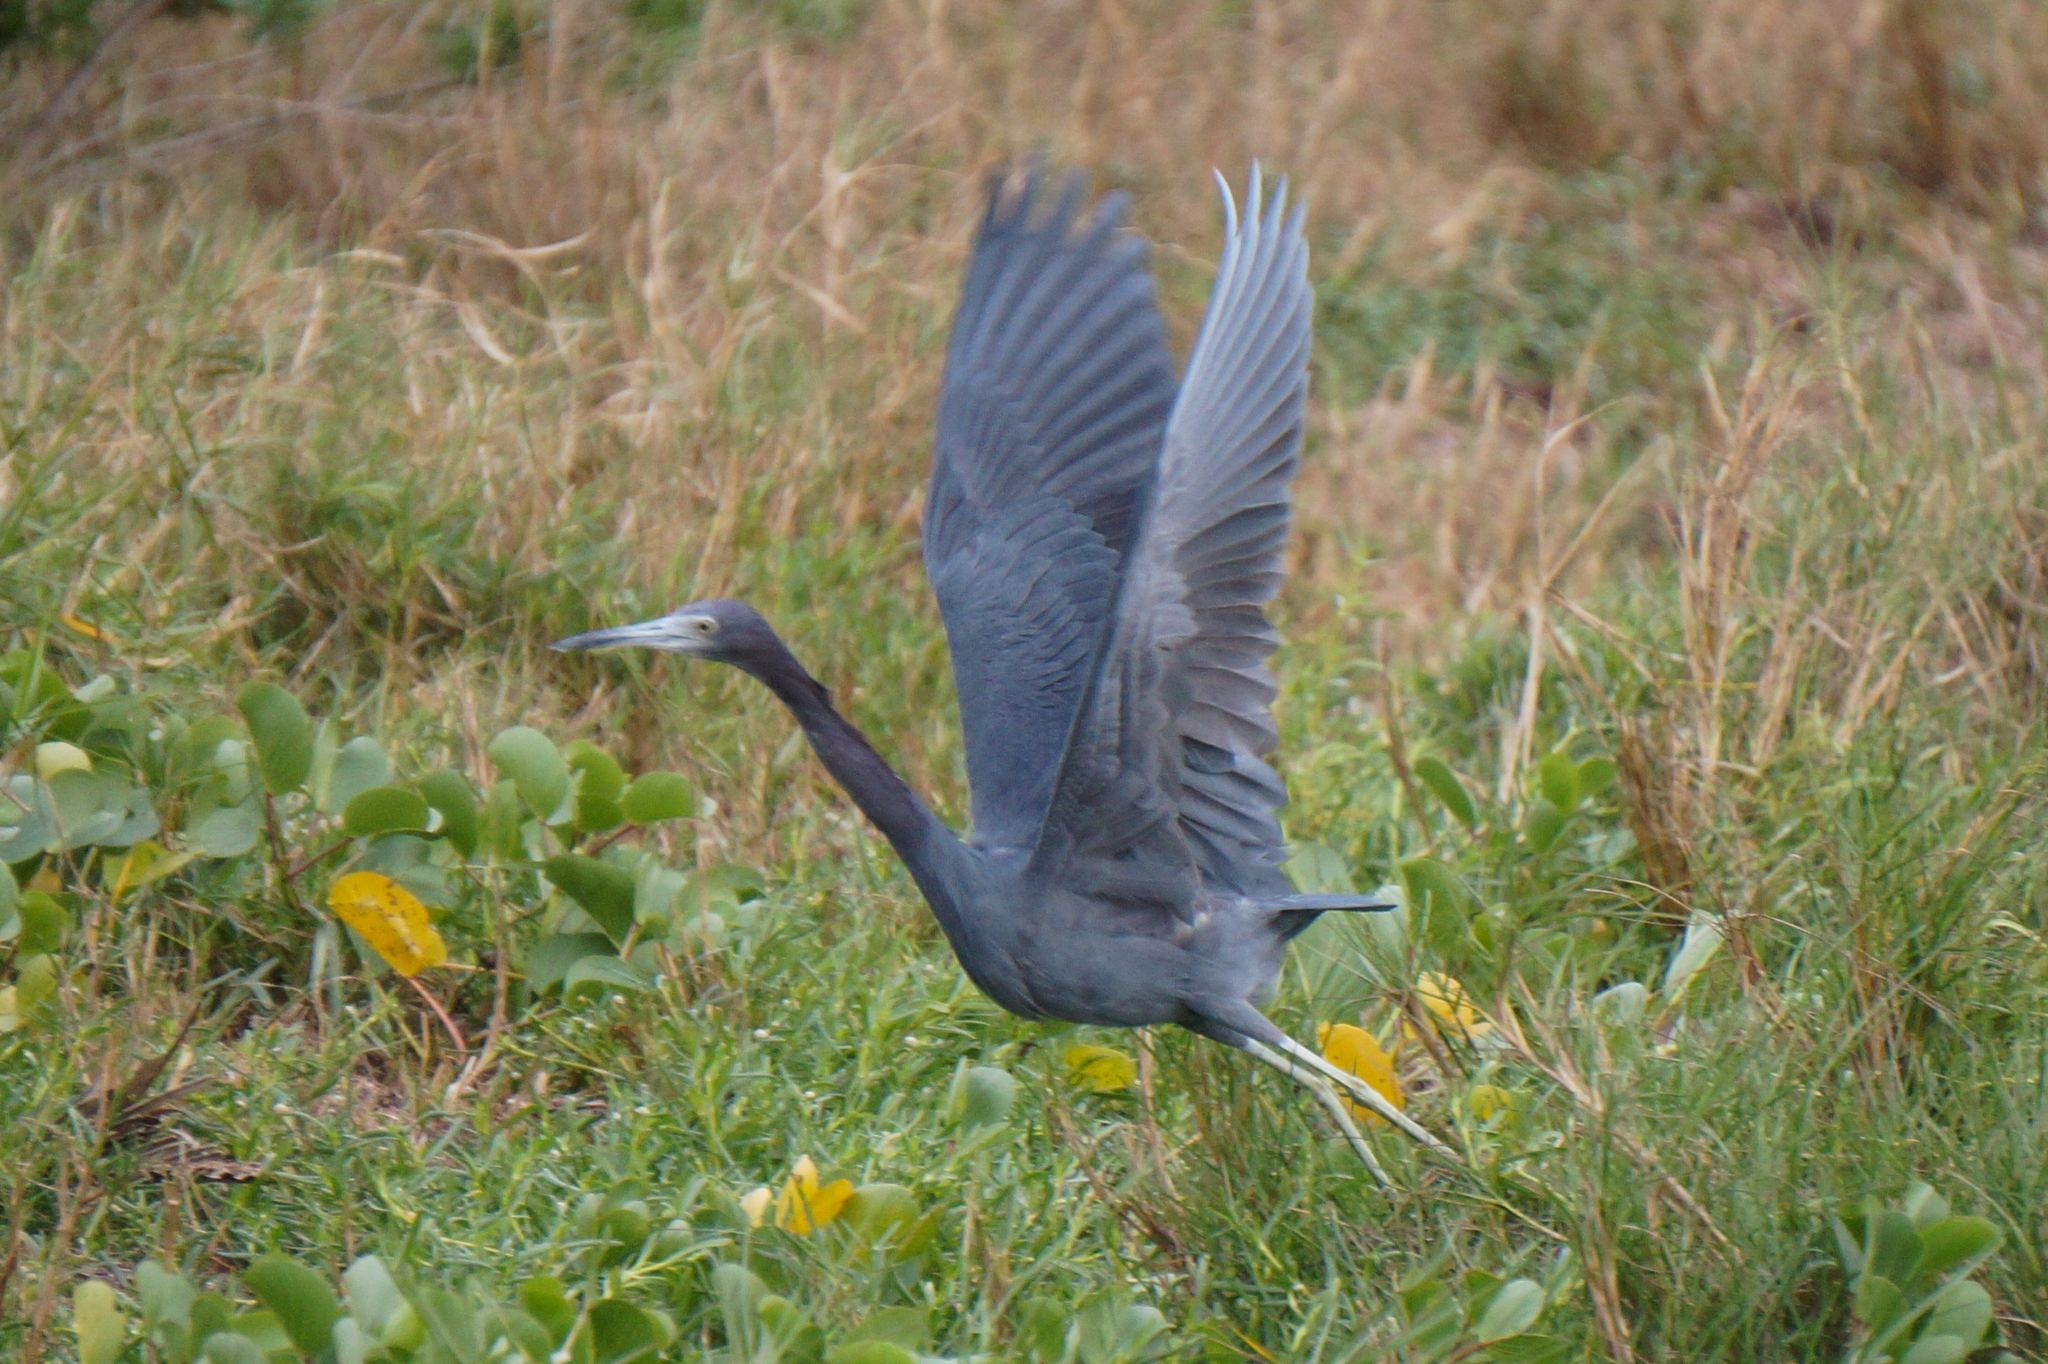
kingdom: Animalia
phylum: Chordata
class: Aves
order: Pelecaniformes
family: Ardeidae
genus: Egretta
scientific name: Egretta caerulea
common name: Little blue heron
